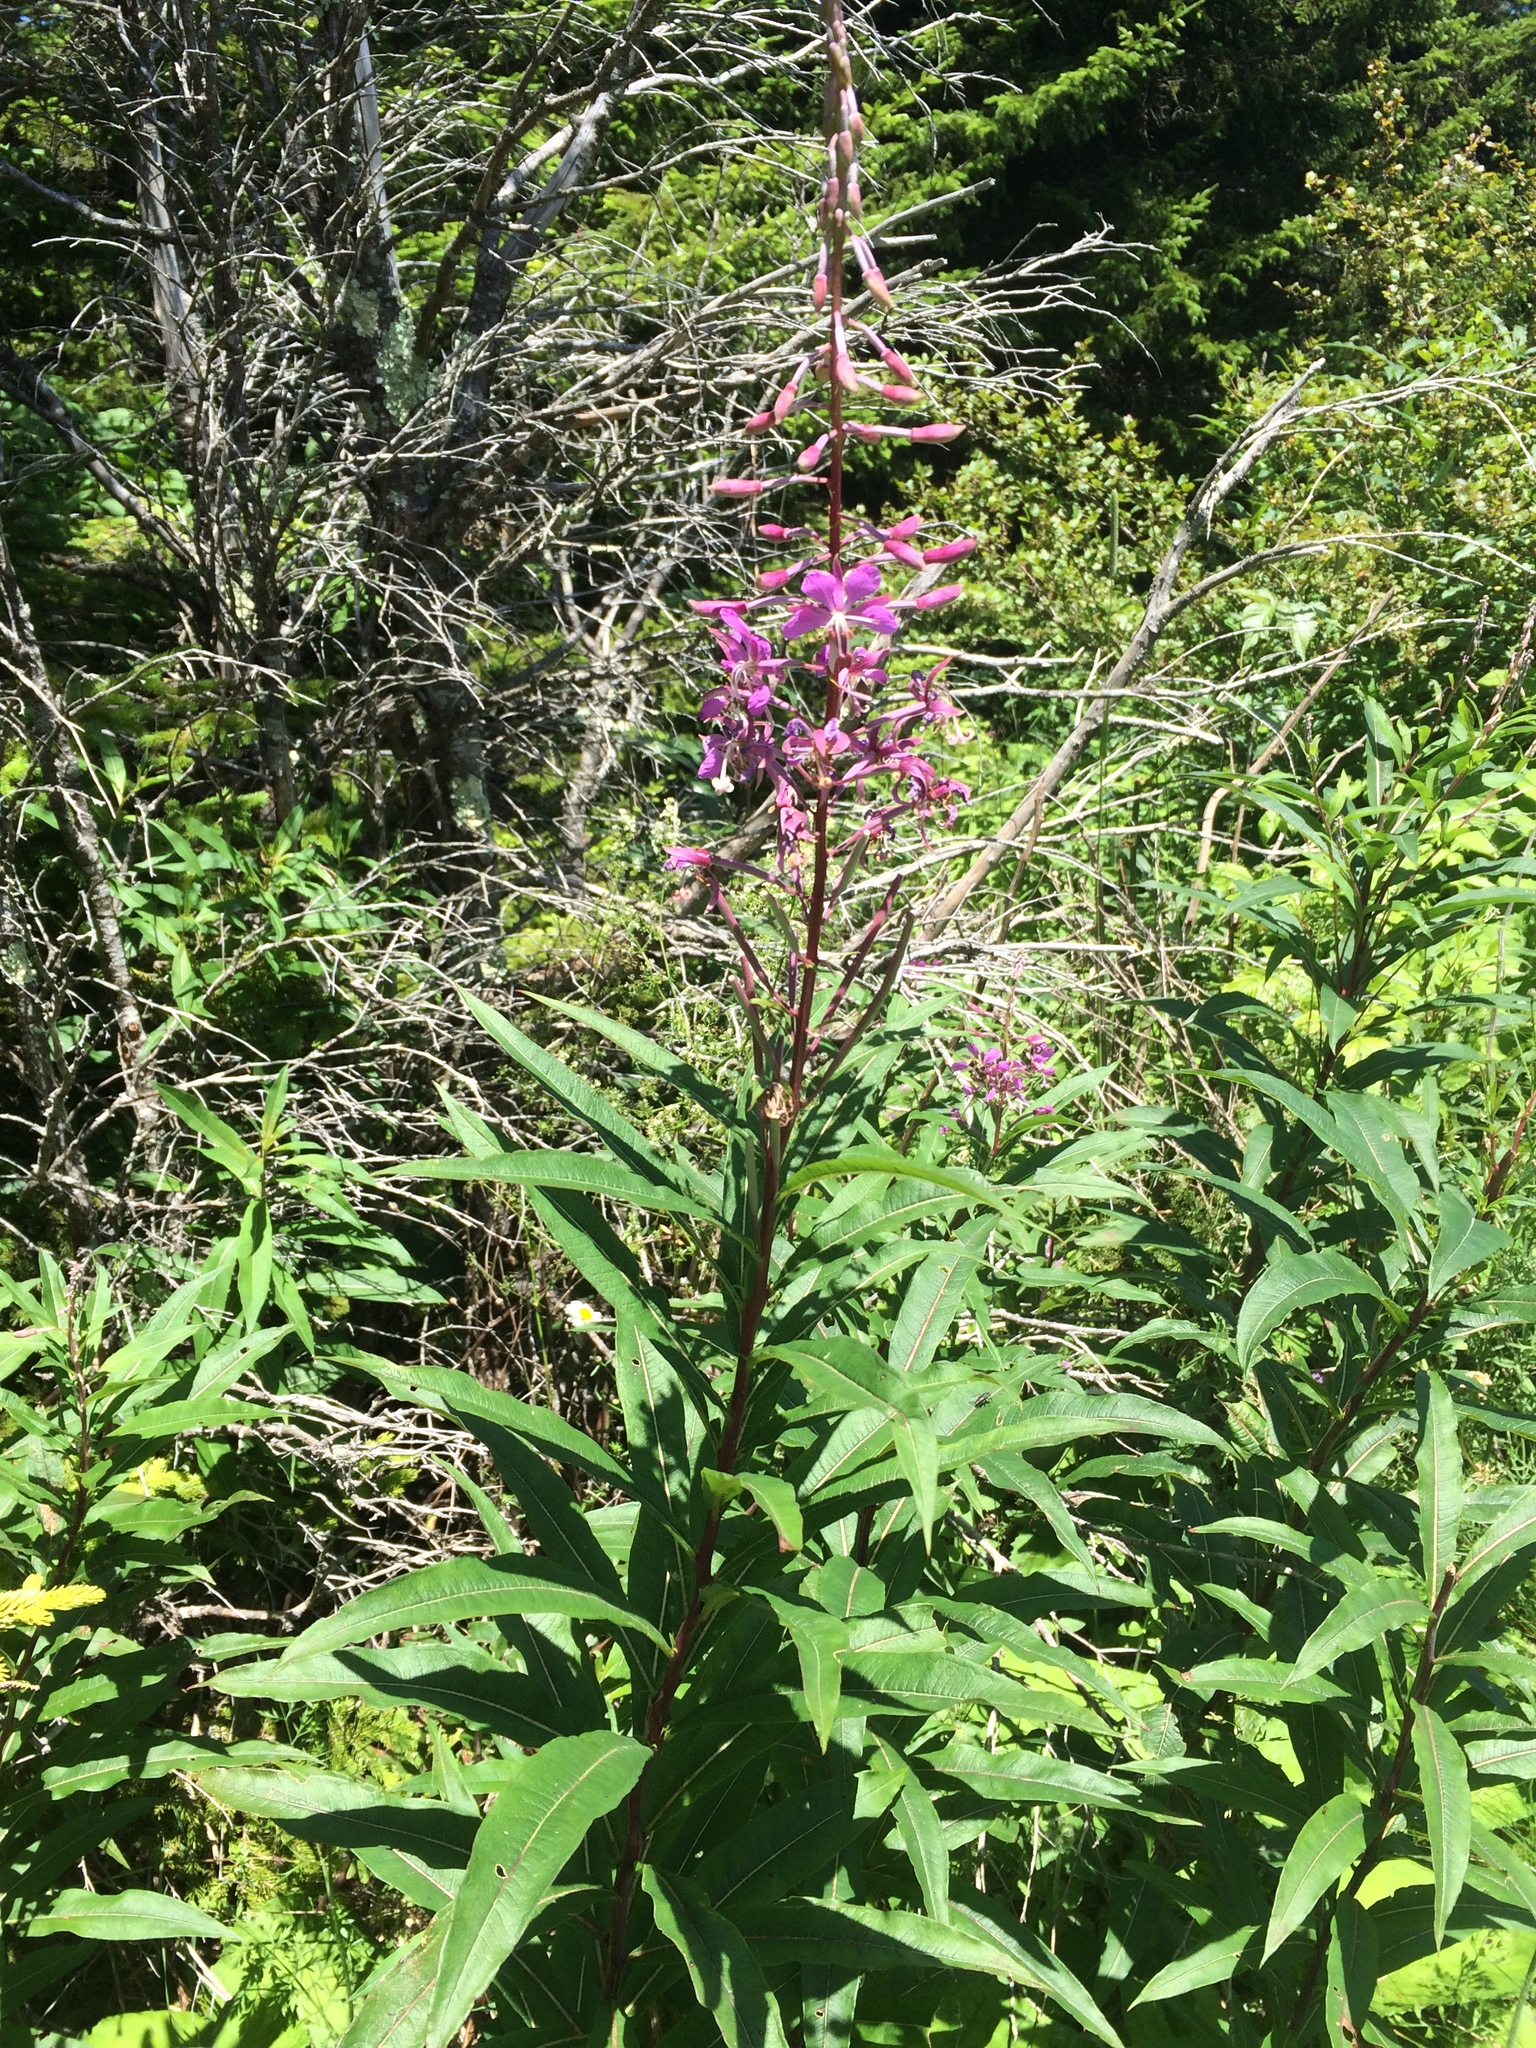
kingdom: Plantae
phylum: Tracheophyta
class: Magnoliopsida
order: Myrtales
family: Onagraceae
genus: Chamaenerion
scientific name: Chamaenerion angustifolium
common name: Fireweed
